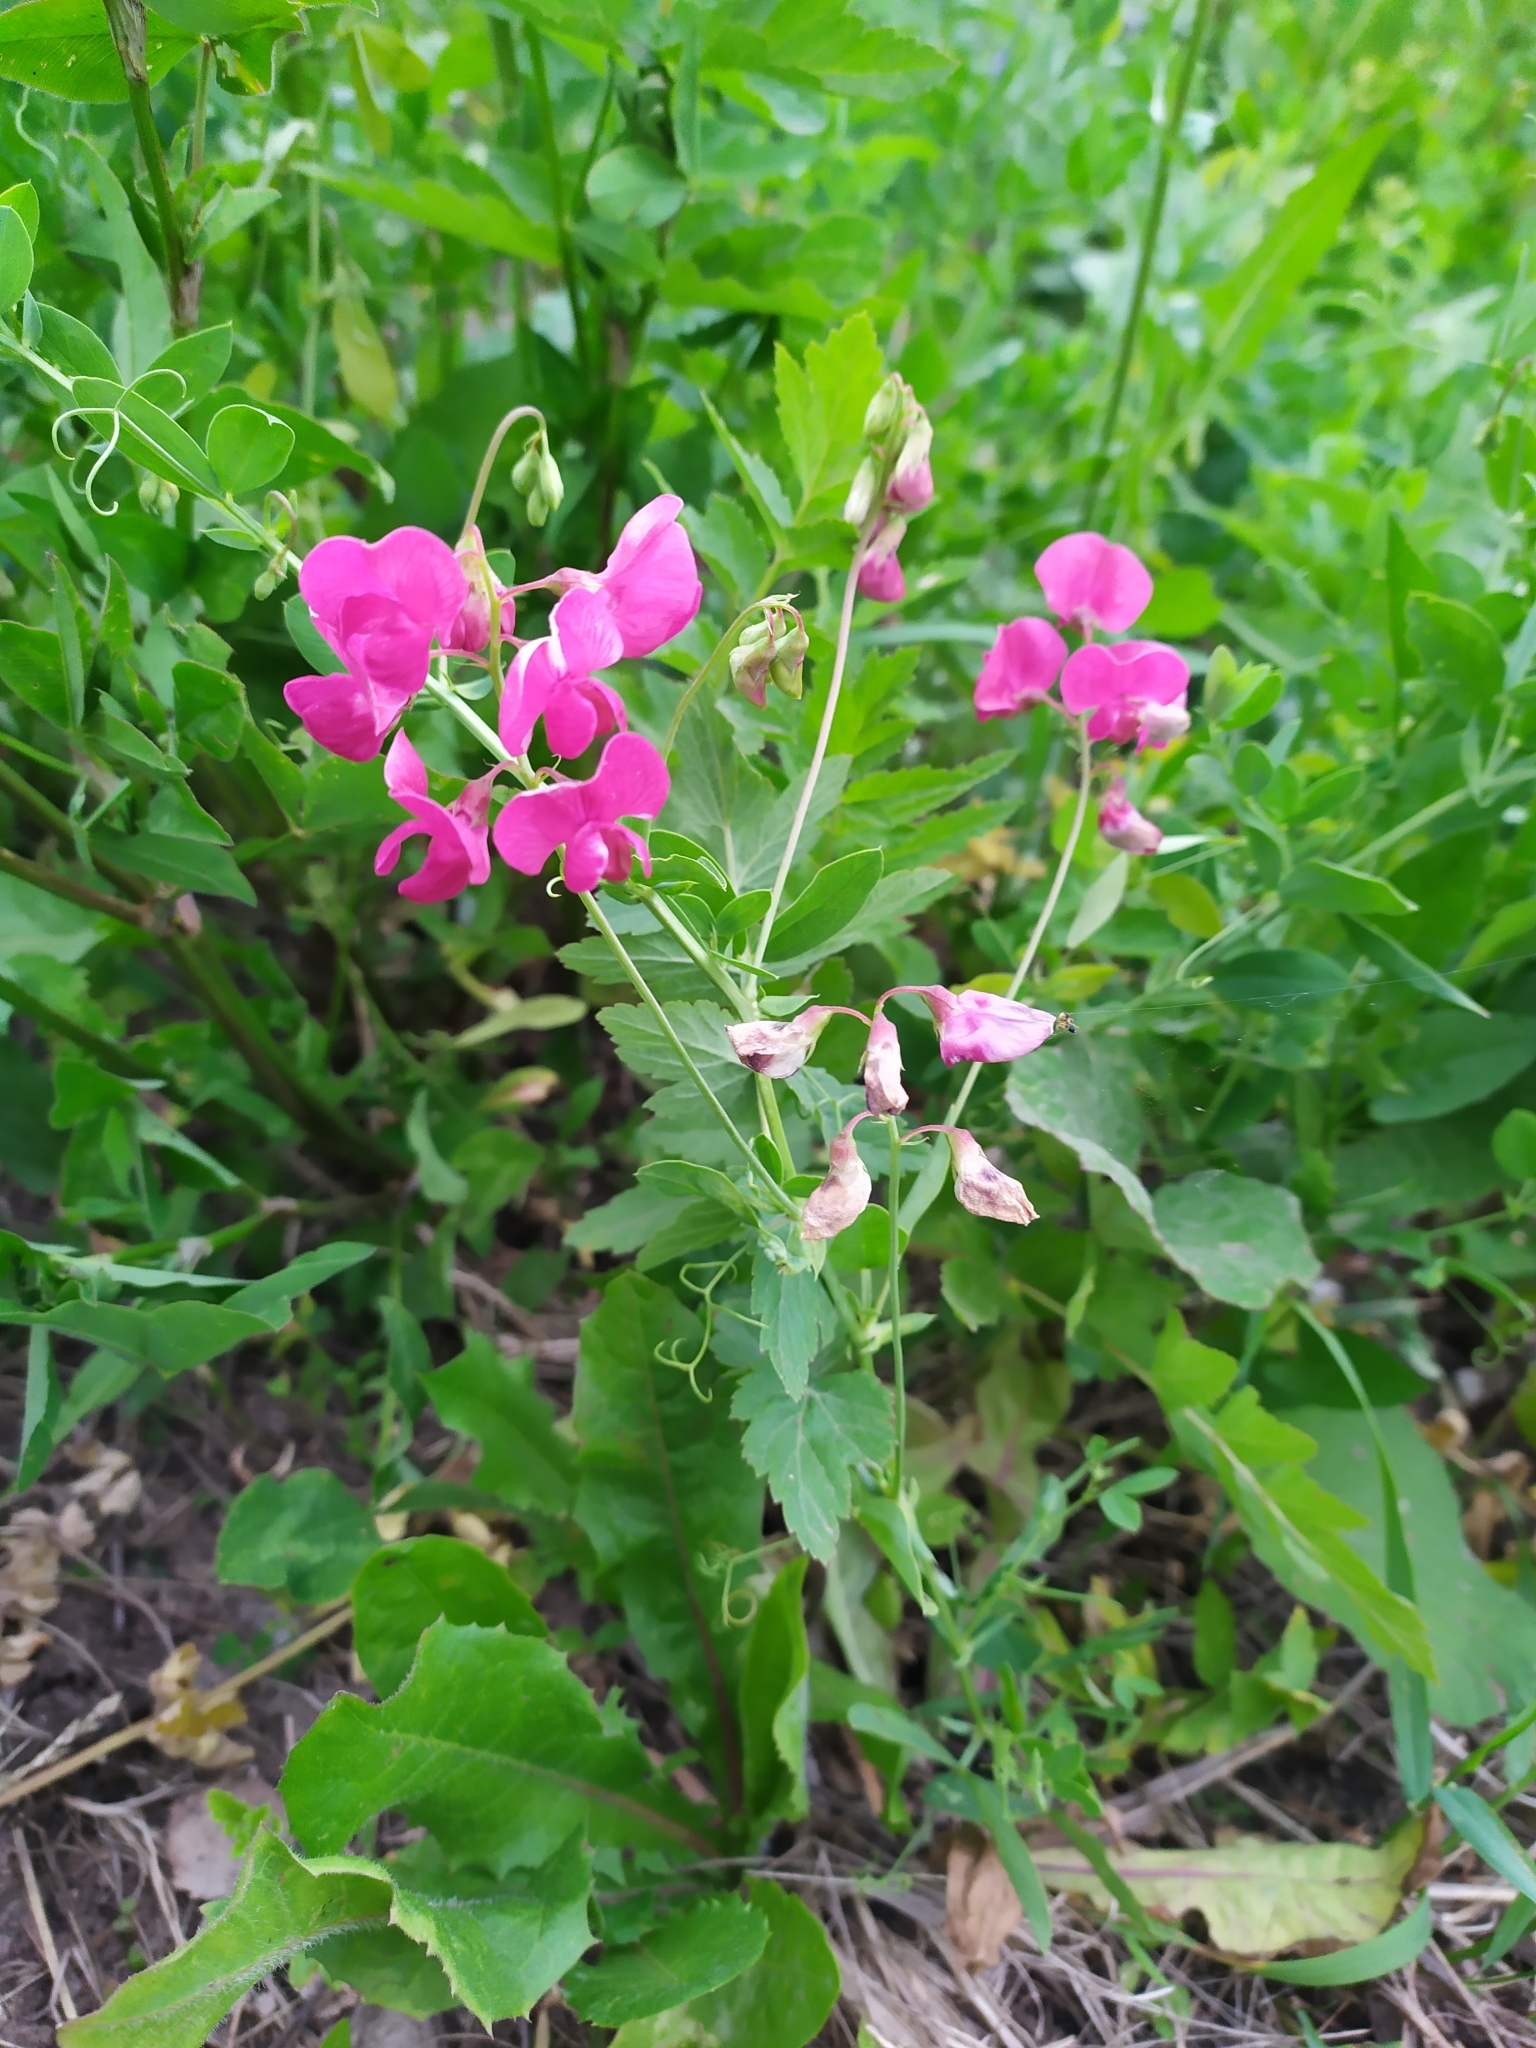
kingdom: Plantae
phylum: Tracheophyta
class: Magnoliopsida
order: Fabales
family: Fabaceae
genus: Lathyrus
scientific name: Lathyrus tuberosus
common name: Tuberous pea
